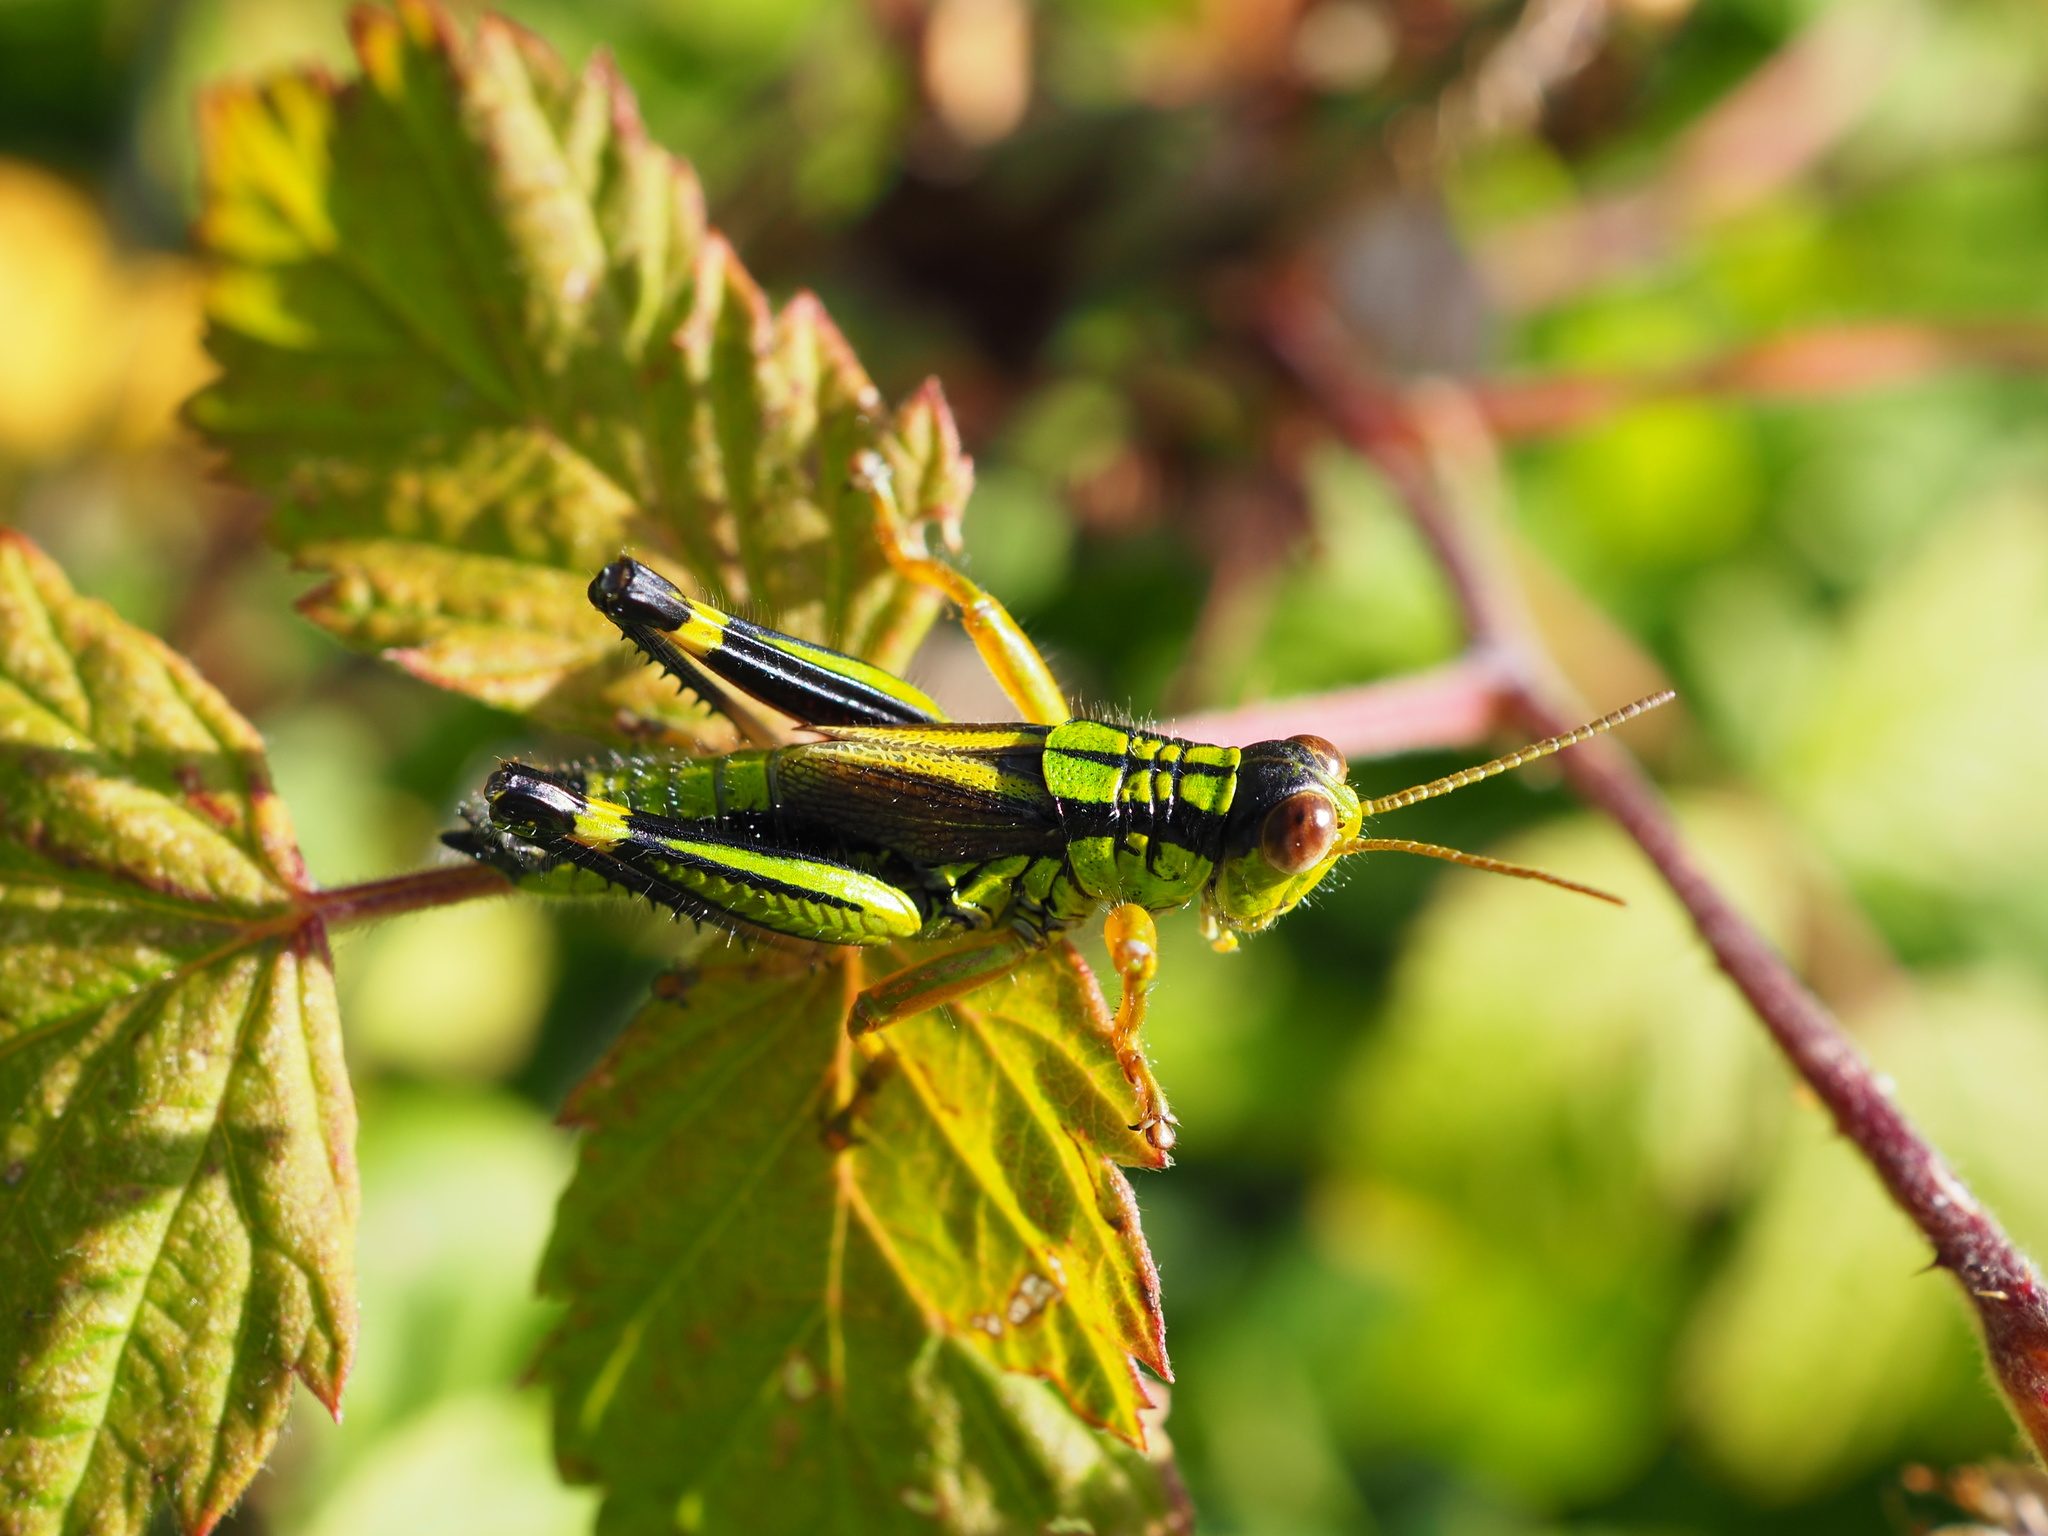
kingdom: Animalia
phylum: Arthropoda
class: Insecta
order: Orthoptera
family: Acrididae
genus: Miramella
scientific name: Miramella frinias
